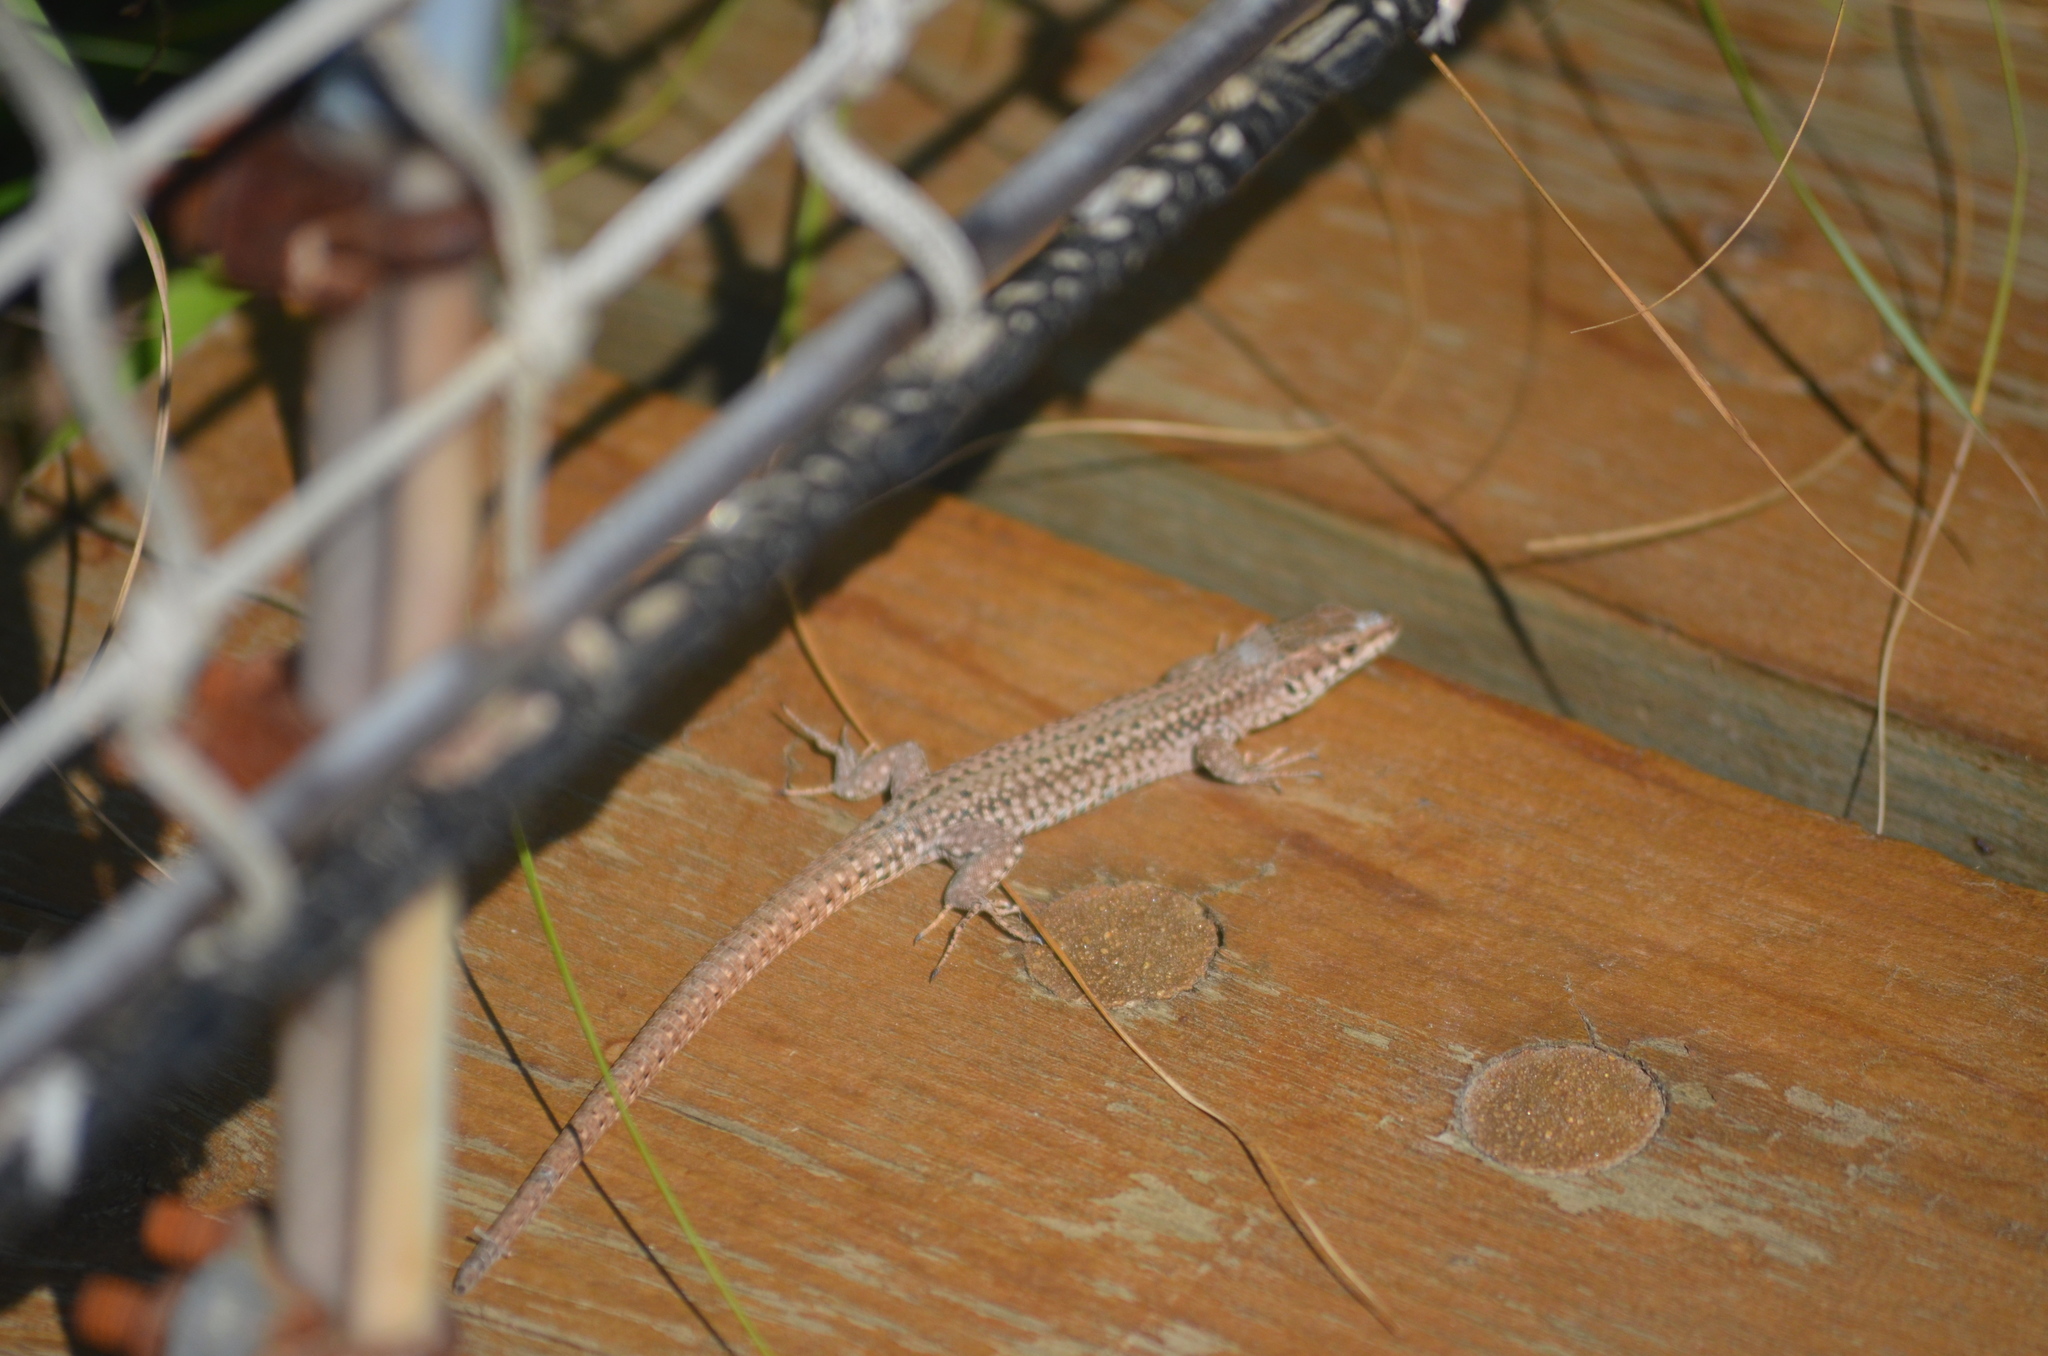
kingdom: Animalia
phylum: Chordata
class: Squamata
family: Lacertidae
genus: Podarcis
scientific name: Podarcis muralis
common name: Common wall lizard
